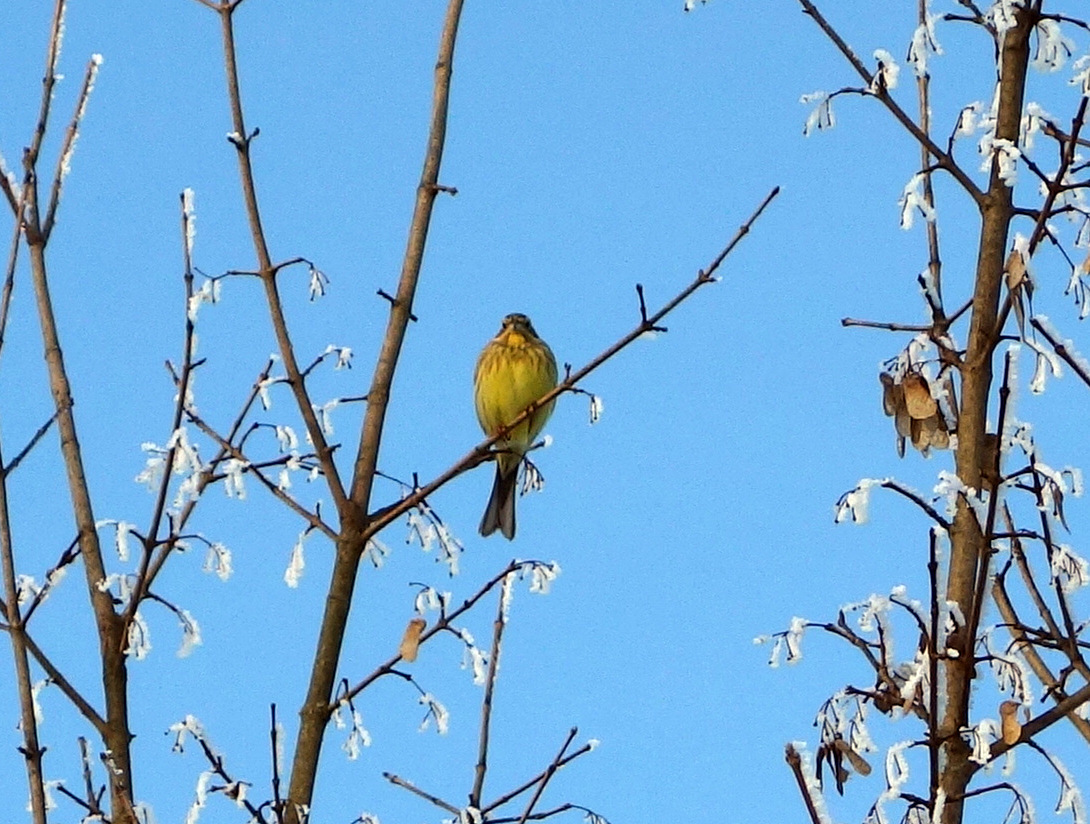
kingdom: Animalia
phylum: Chordata
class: Aves
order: Passeriformes
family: Emberizidae
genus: Emberiza
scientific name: Emberiza citrinella
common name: Yellowhammer
